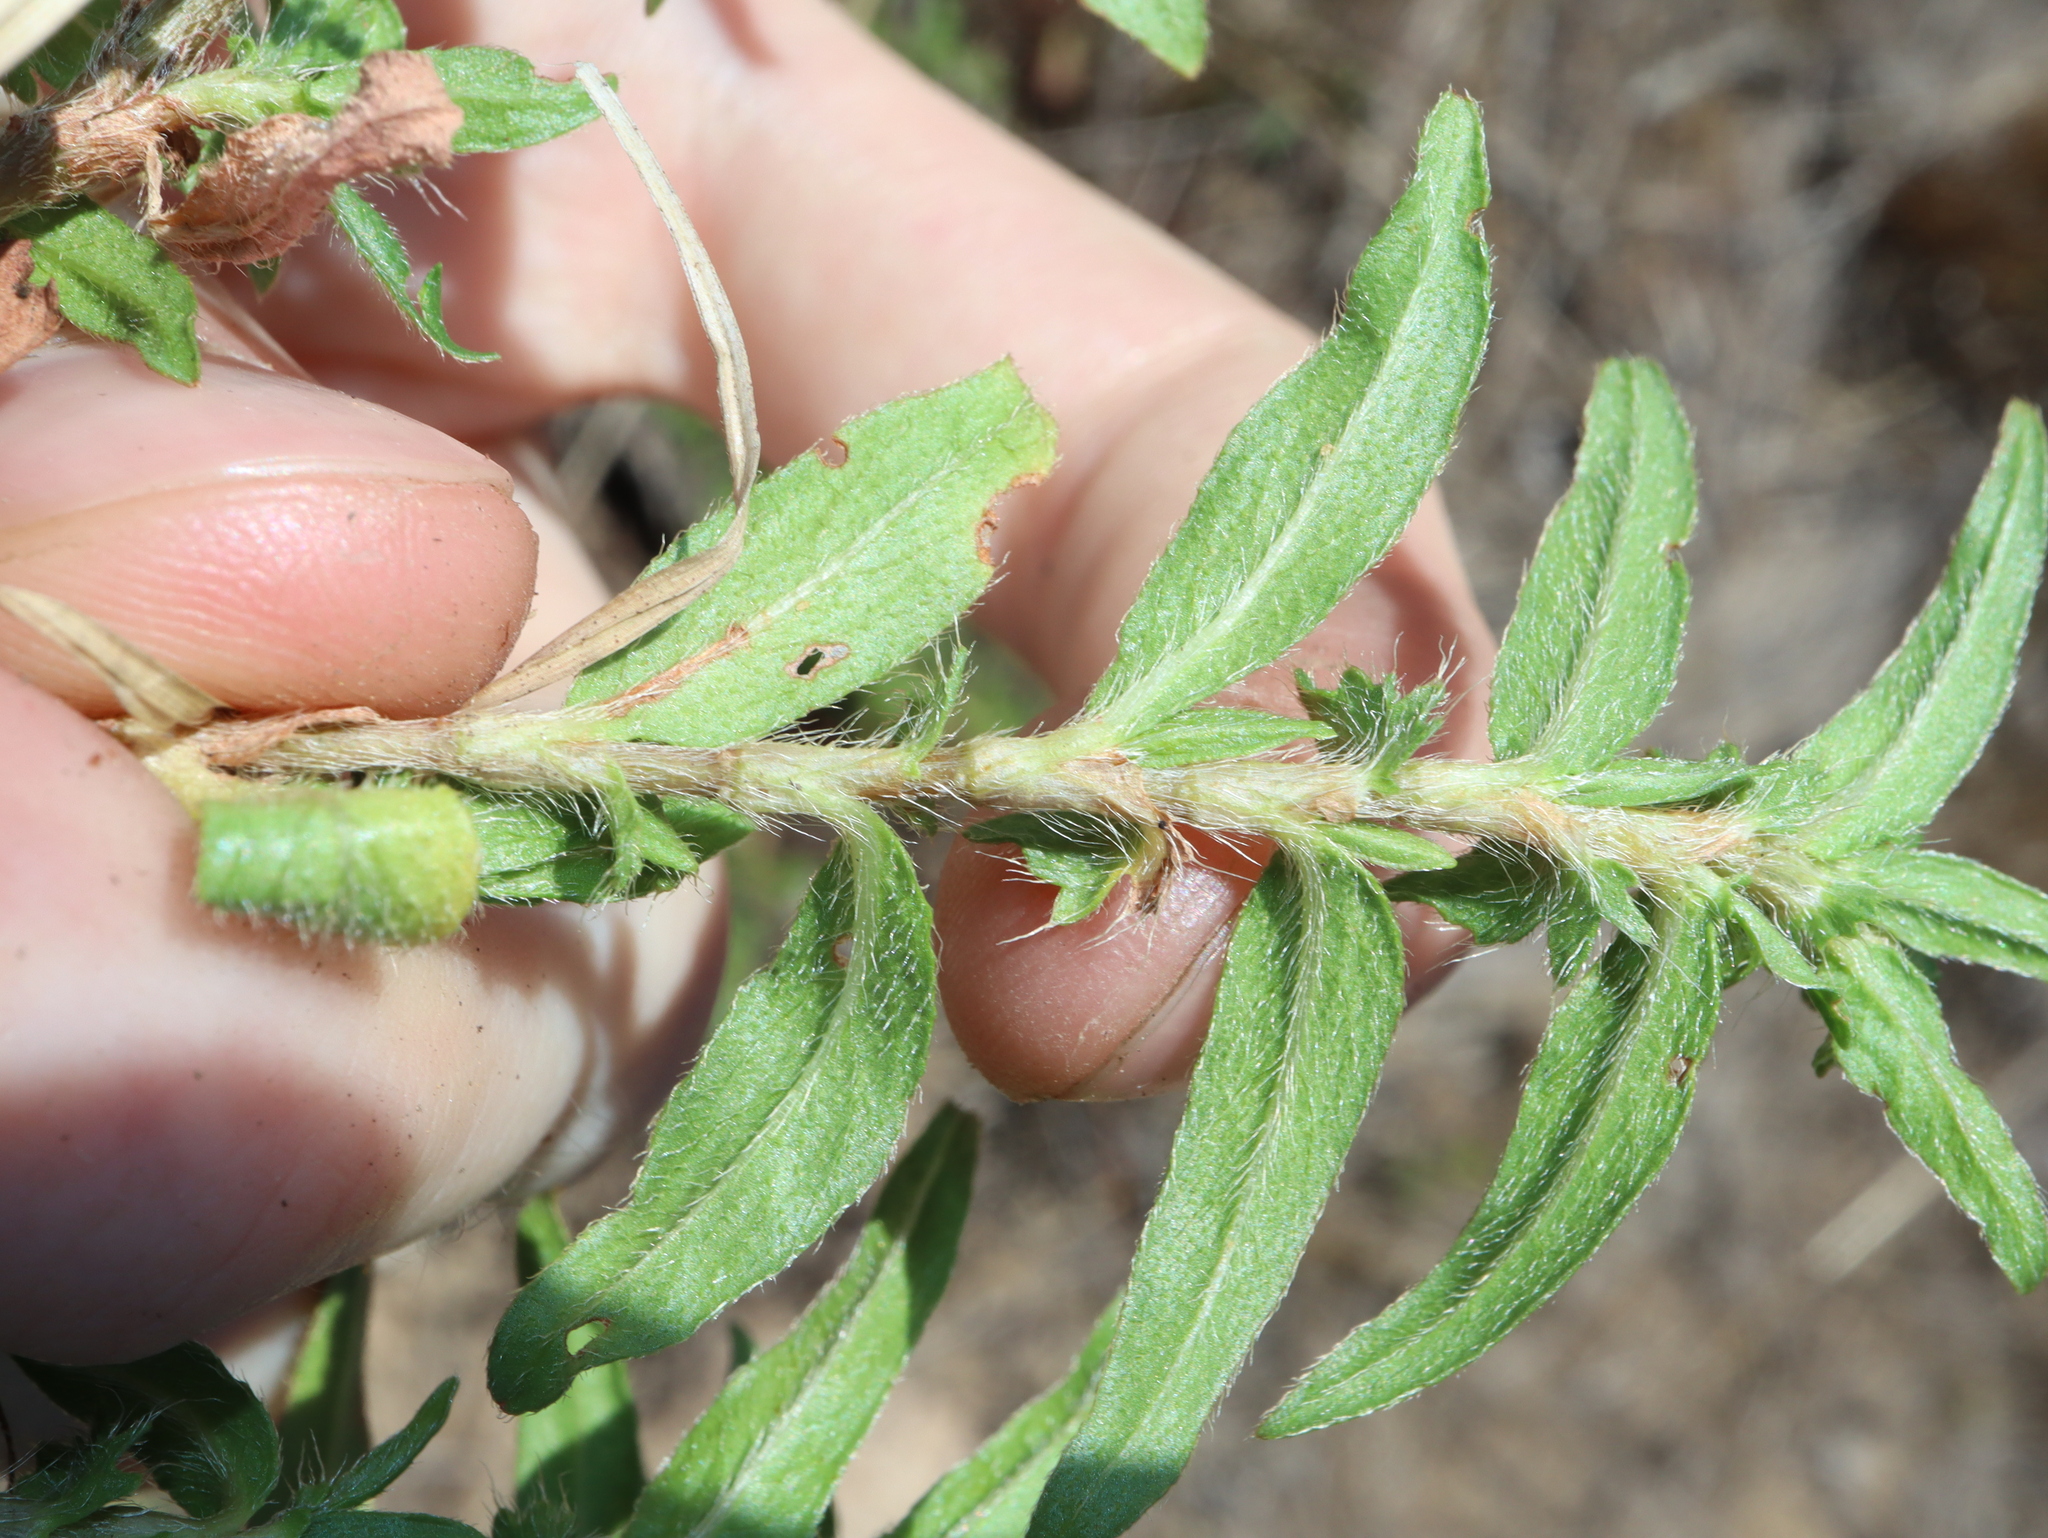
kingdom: Plantae
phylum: Tracheophyta
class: Magnoliopsida
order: Caryophyllales
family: Polygonaceae
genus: Persicaria
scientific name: Persicaria prostrata
